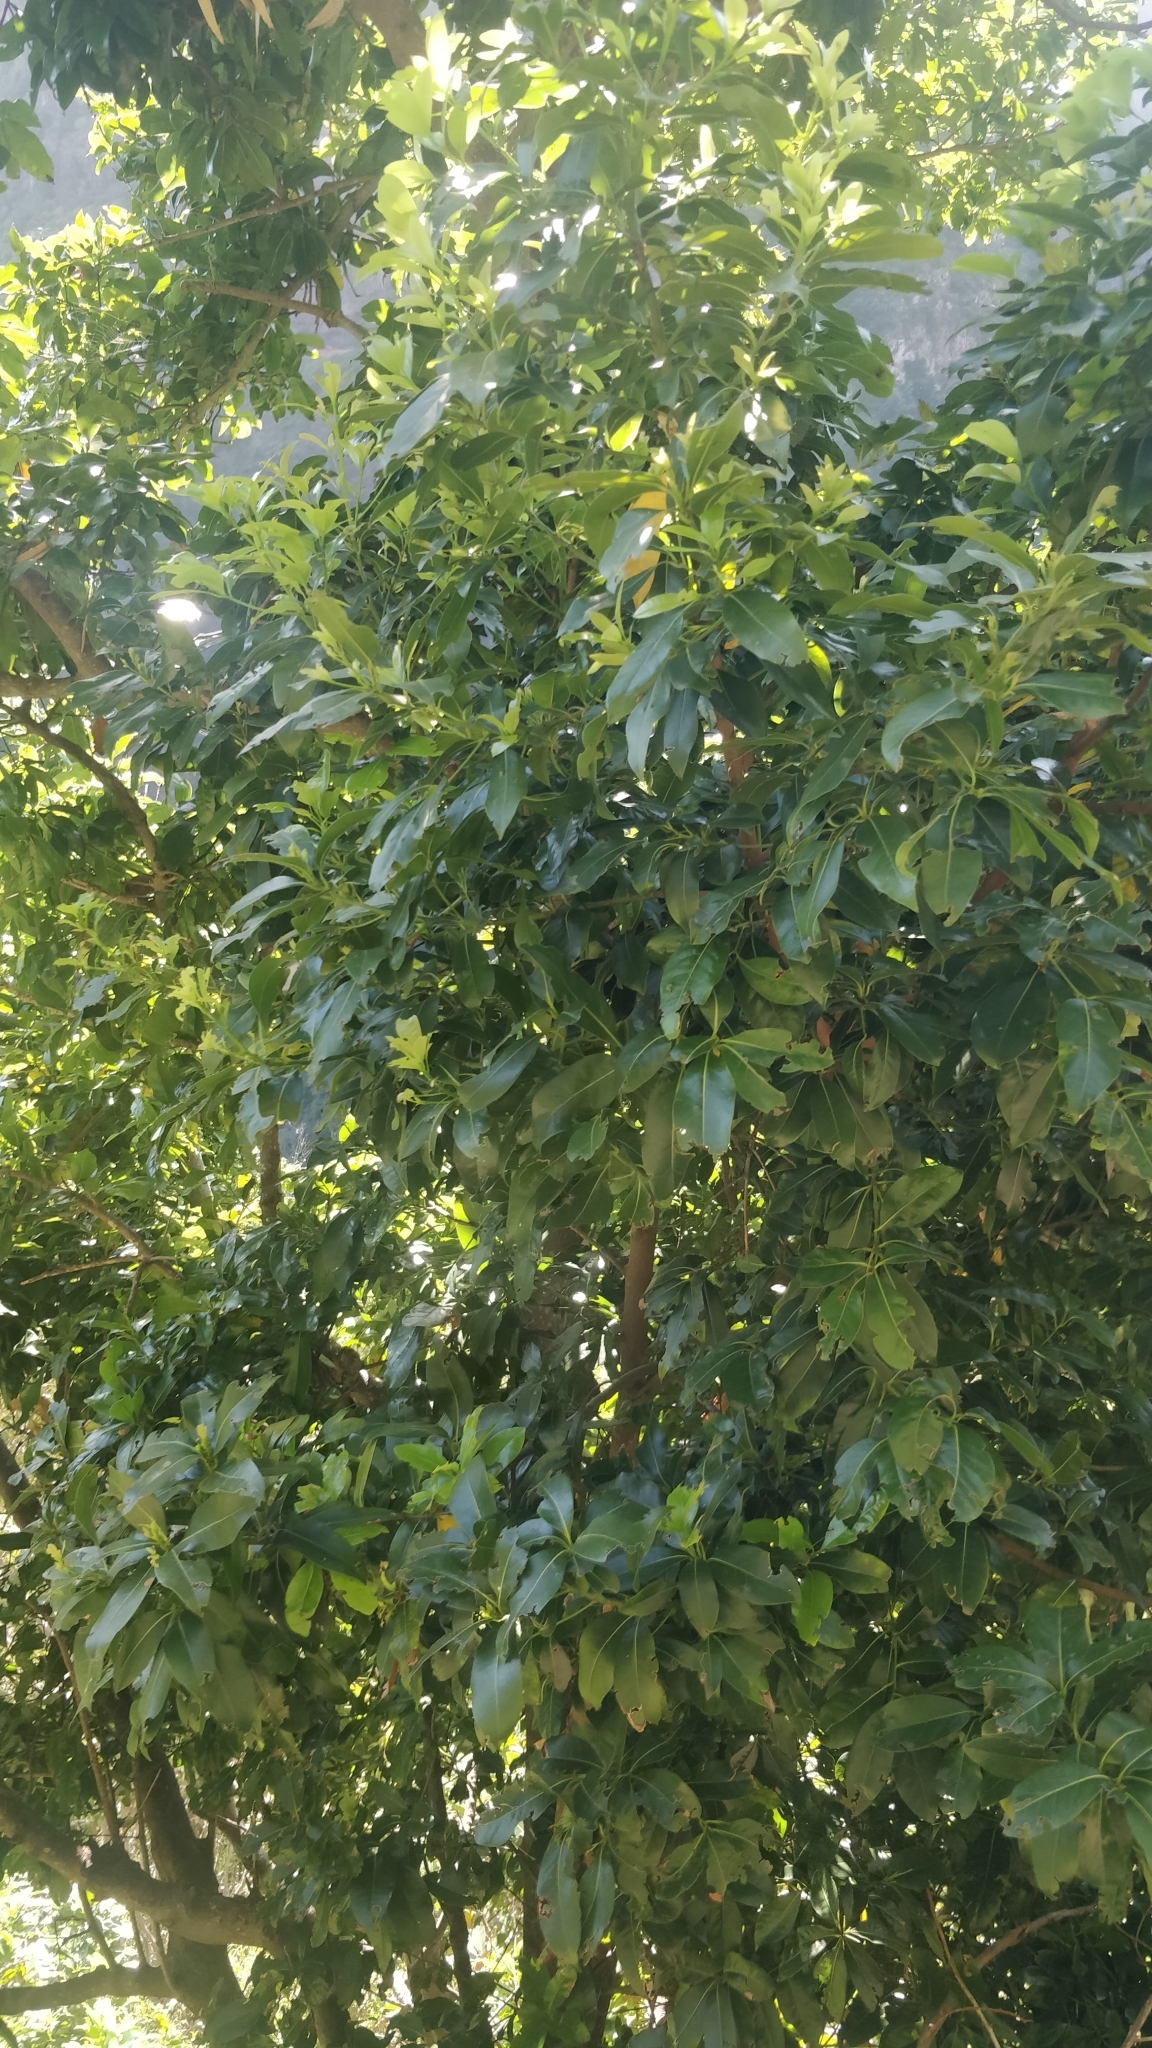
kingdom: Plantae
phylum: Tracheophyta
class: Magnoliopsida
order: Laurales
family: Lauraceae
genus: Apollonias
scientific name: Apollonias barbujana
